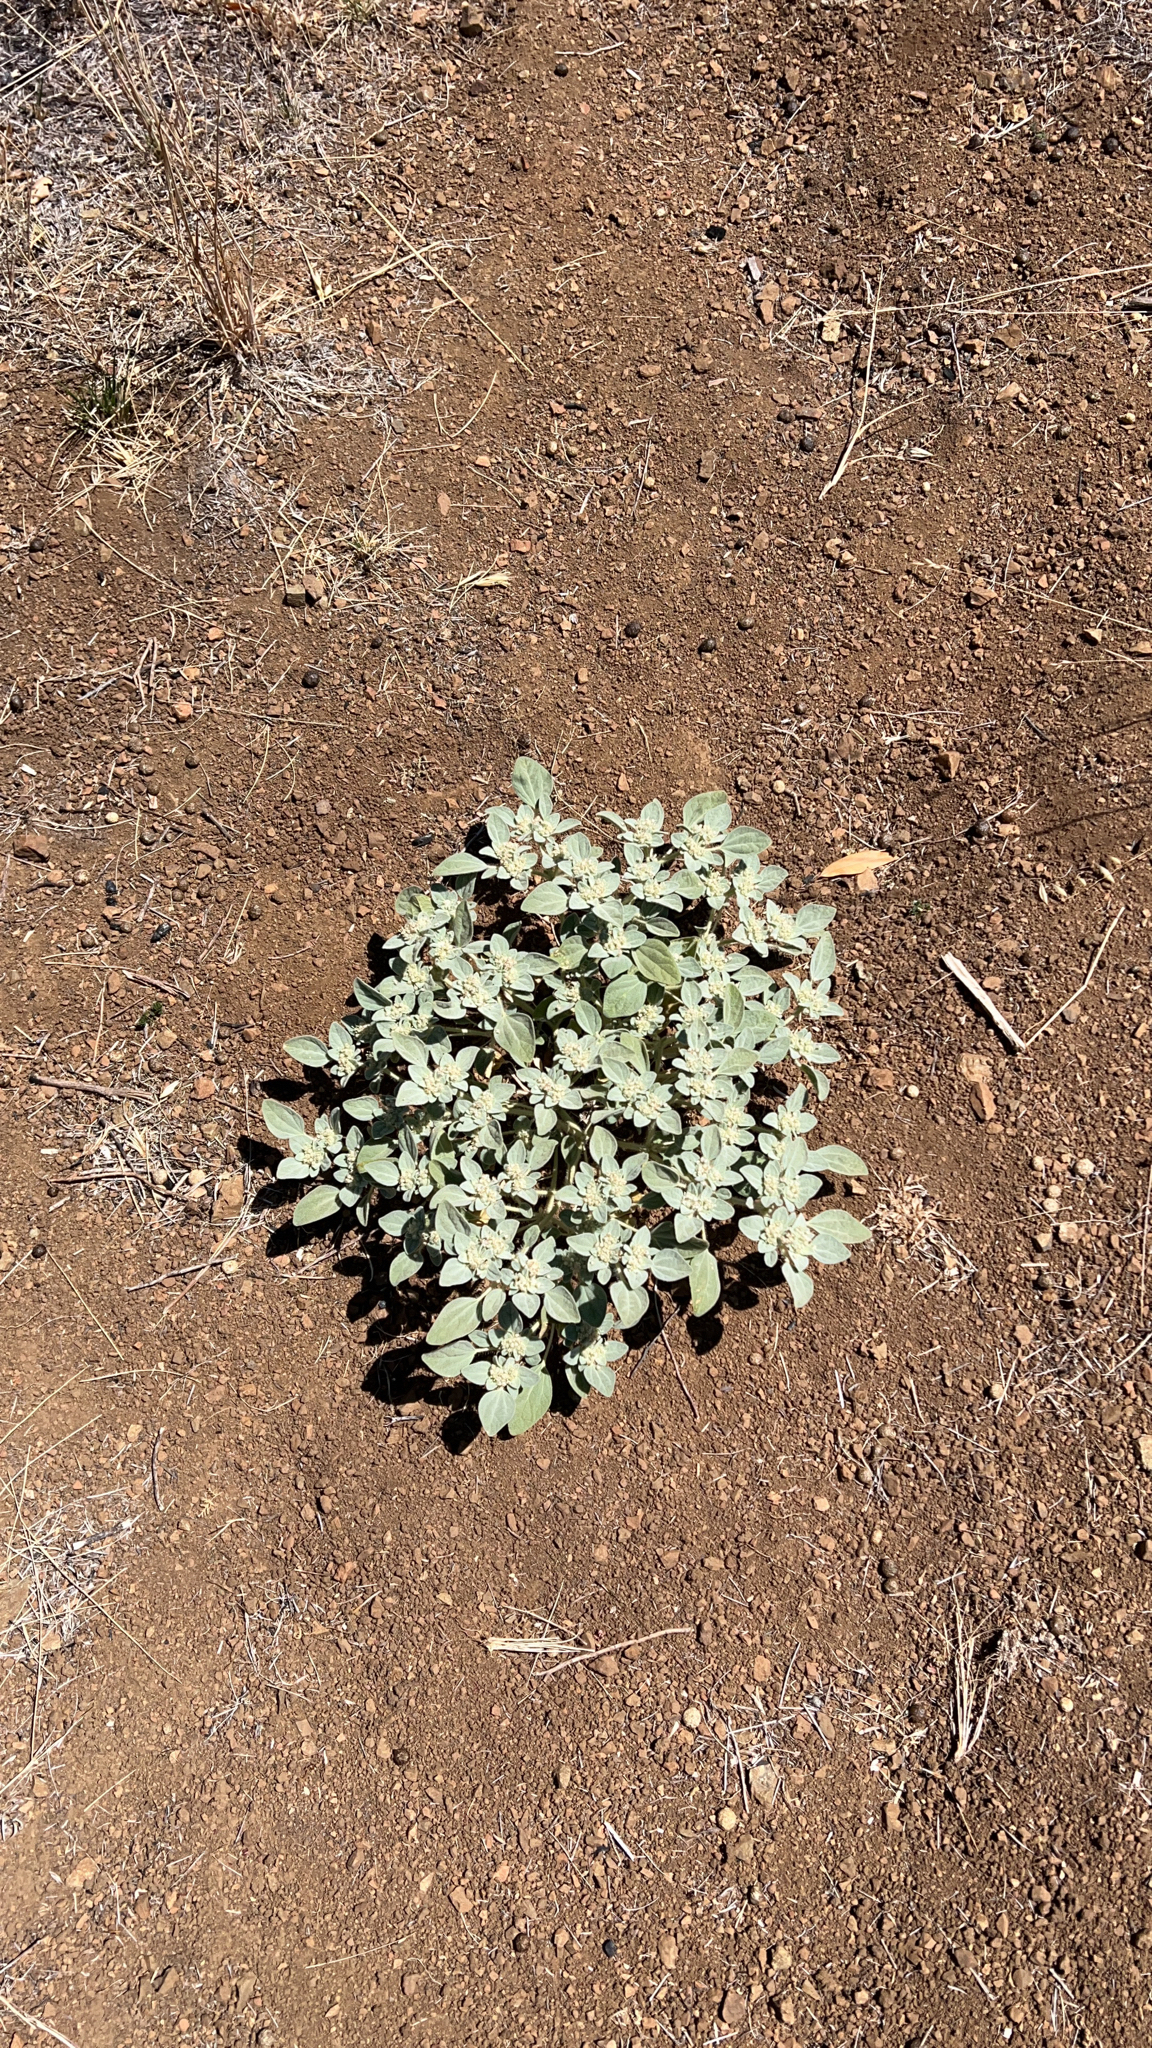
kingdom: Plantae
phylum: Tracheophyta
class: Magnoliopsida
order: Malpighiales
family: Euphorbiaceae
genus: Croton
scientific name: Croton setiger
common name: Dove weed
